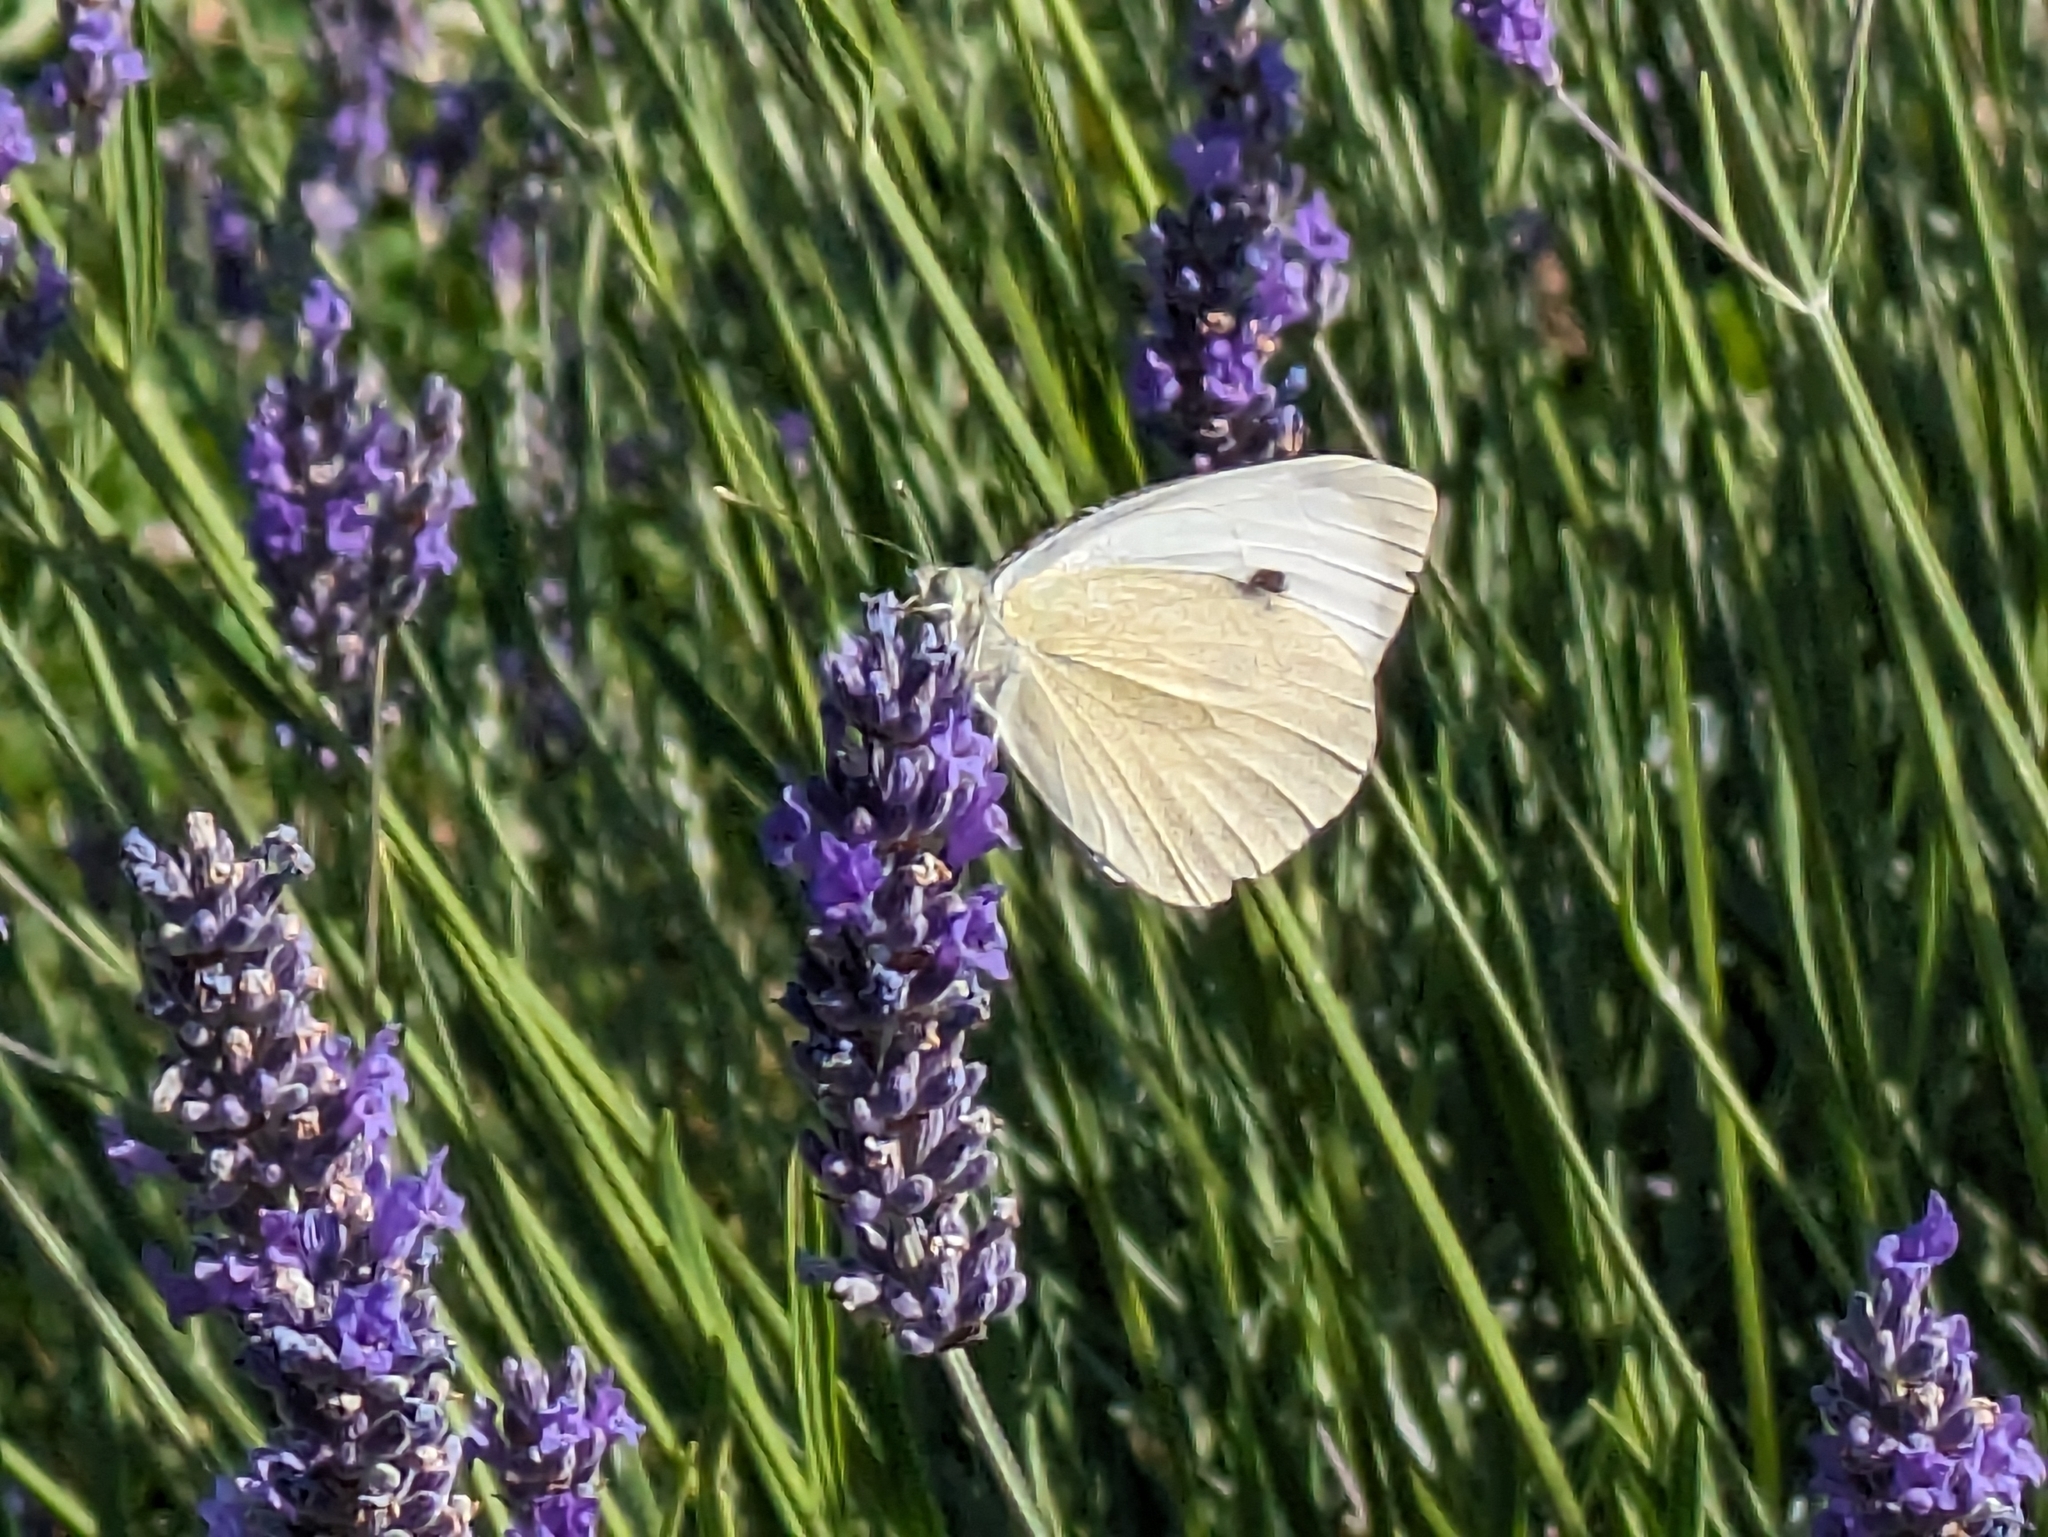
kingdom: Animalia
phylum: Arthropoda
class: Insecta
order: Lepidoptera
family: Pieridae
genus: Pieris
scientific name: Pieris brassicae
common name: Large white
